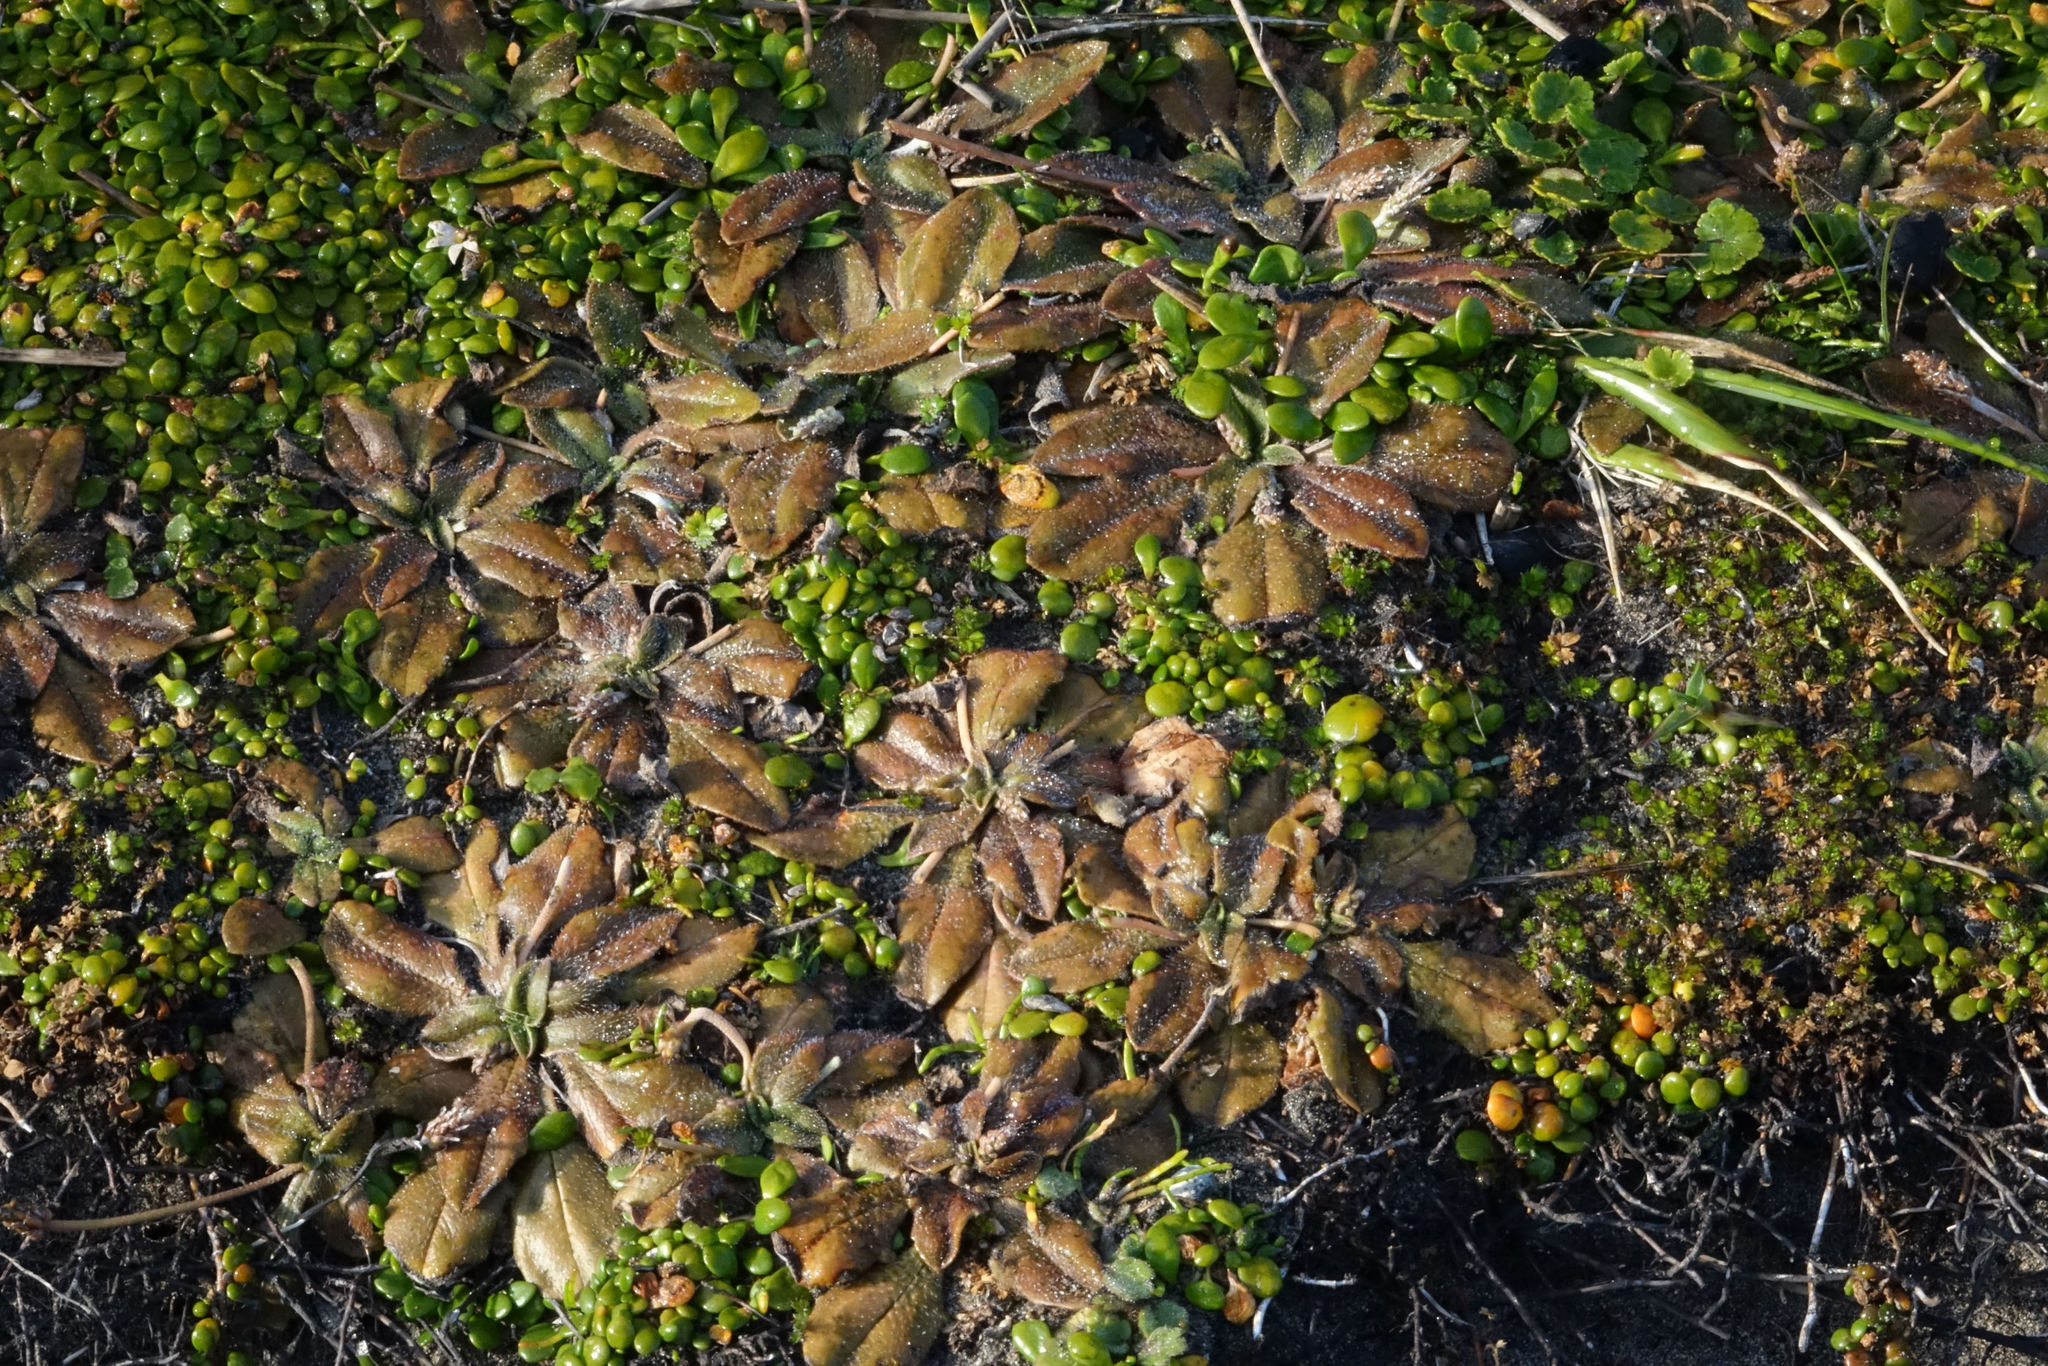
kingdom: Plantae
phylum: Tracheophyta
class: Magnoliopsida
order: Lamiales
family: Plantaginaceae
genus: Plantago
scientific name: Plantago raoulii
